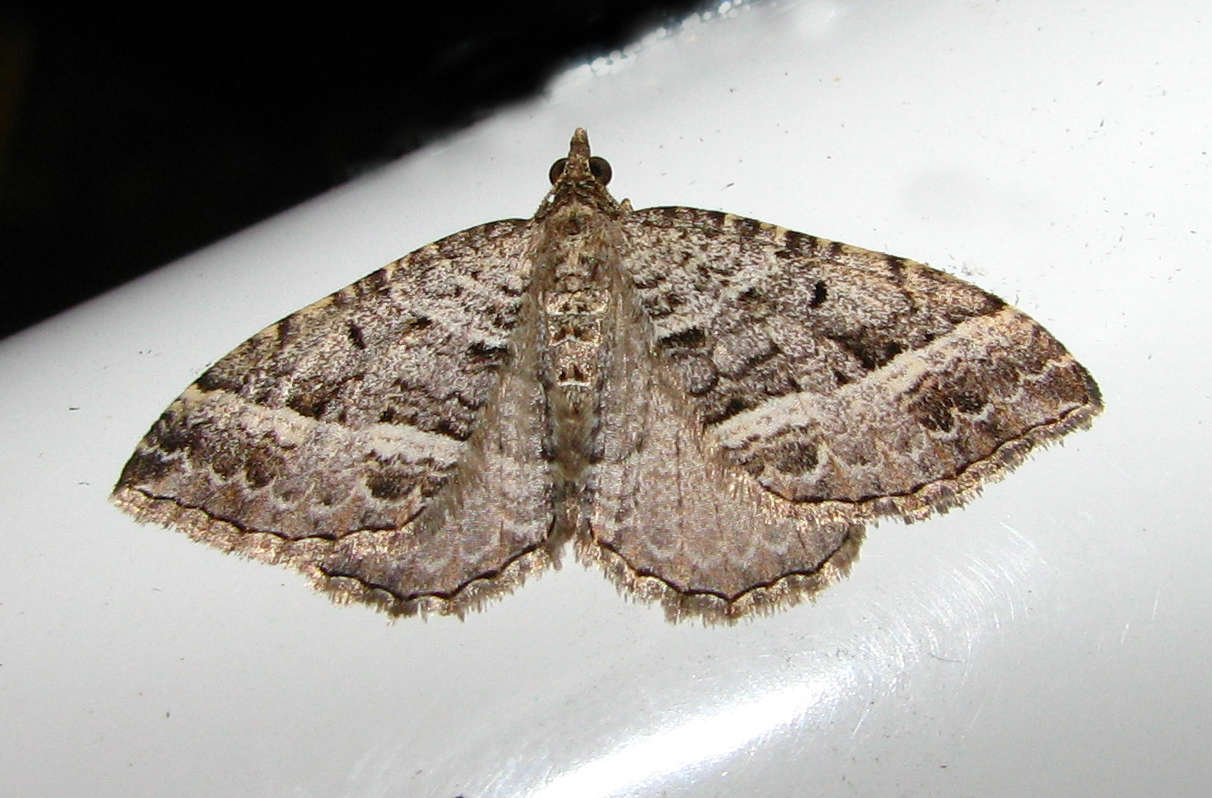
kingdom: Animalia
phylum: Arthropoda
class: Insecta
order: Lepidoptera
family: Geometridae
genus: Chrysolarentia
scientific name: Chrysolarentia subrectaria
